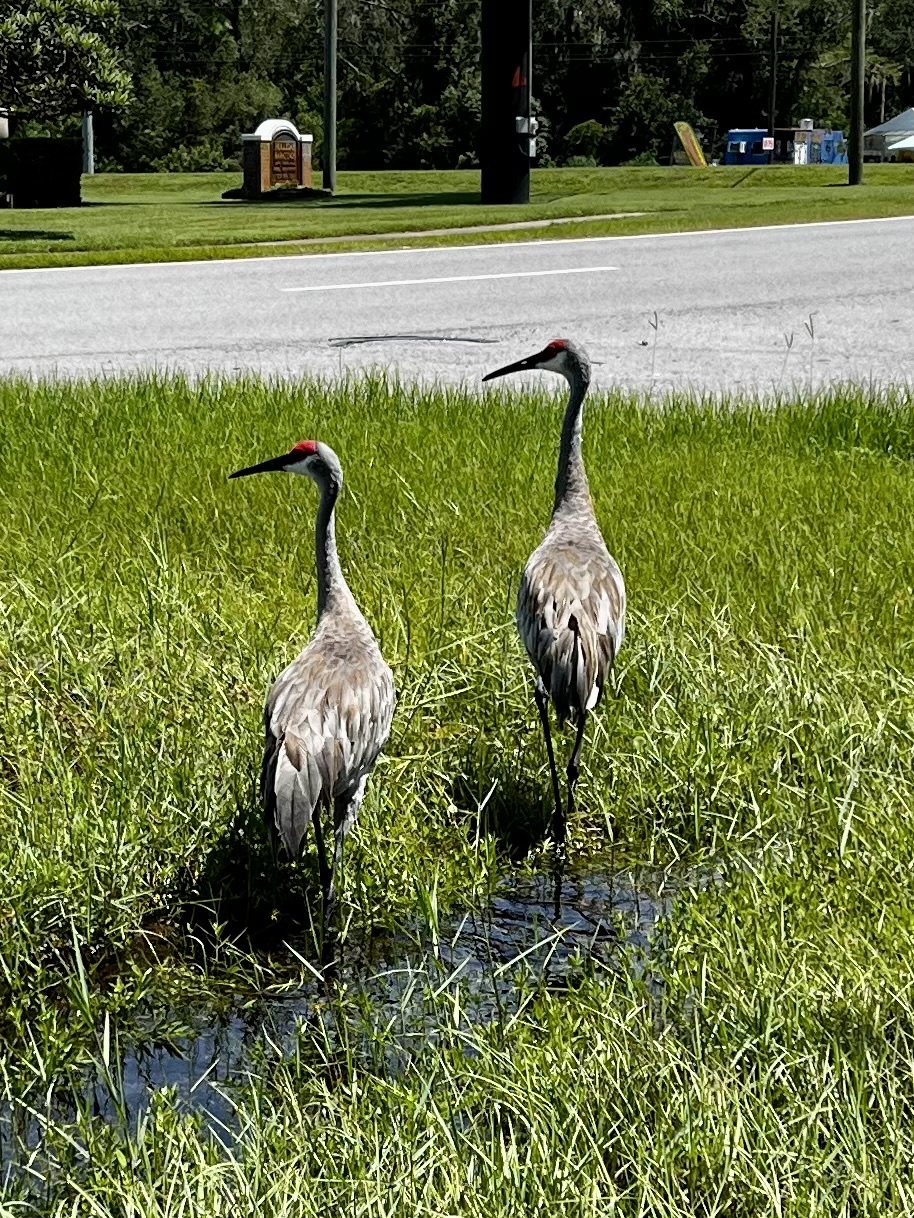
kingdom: Animalia
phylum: Chordata
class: Aves
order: Gruiformes
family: Gruidae
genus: Grus
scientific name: Grus canadensis
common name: Sandhill crane
